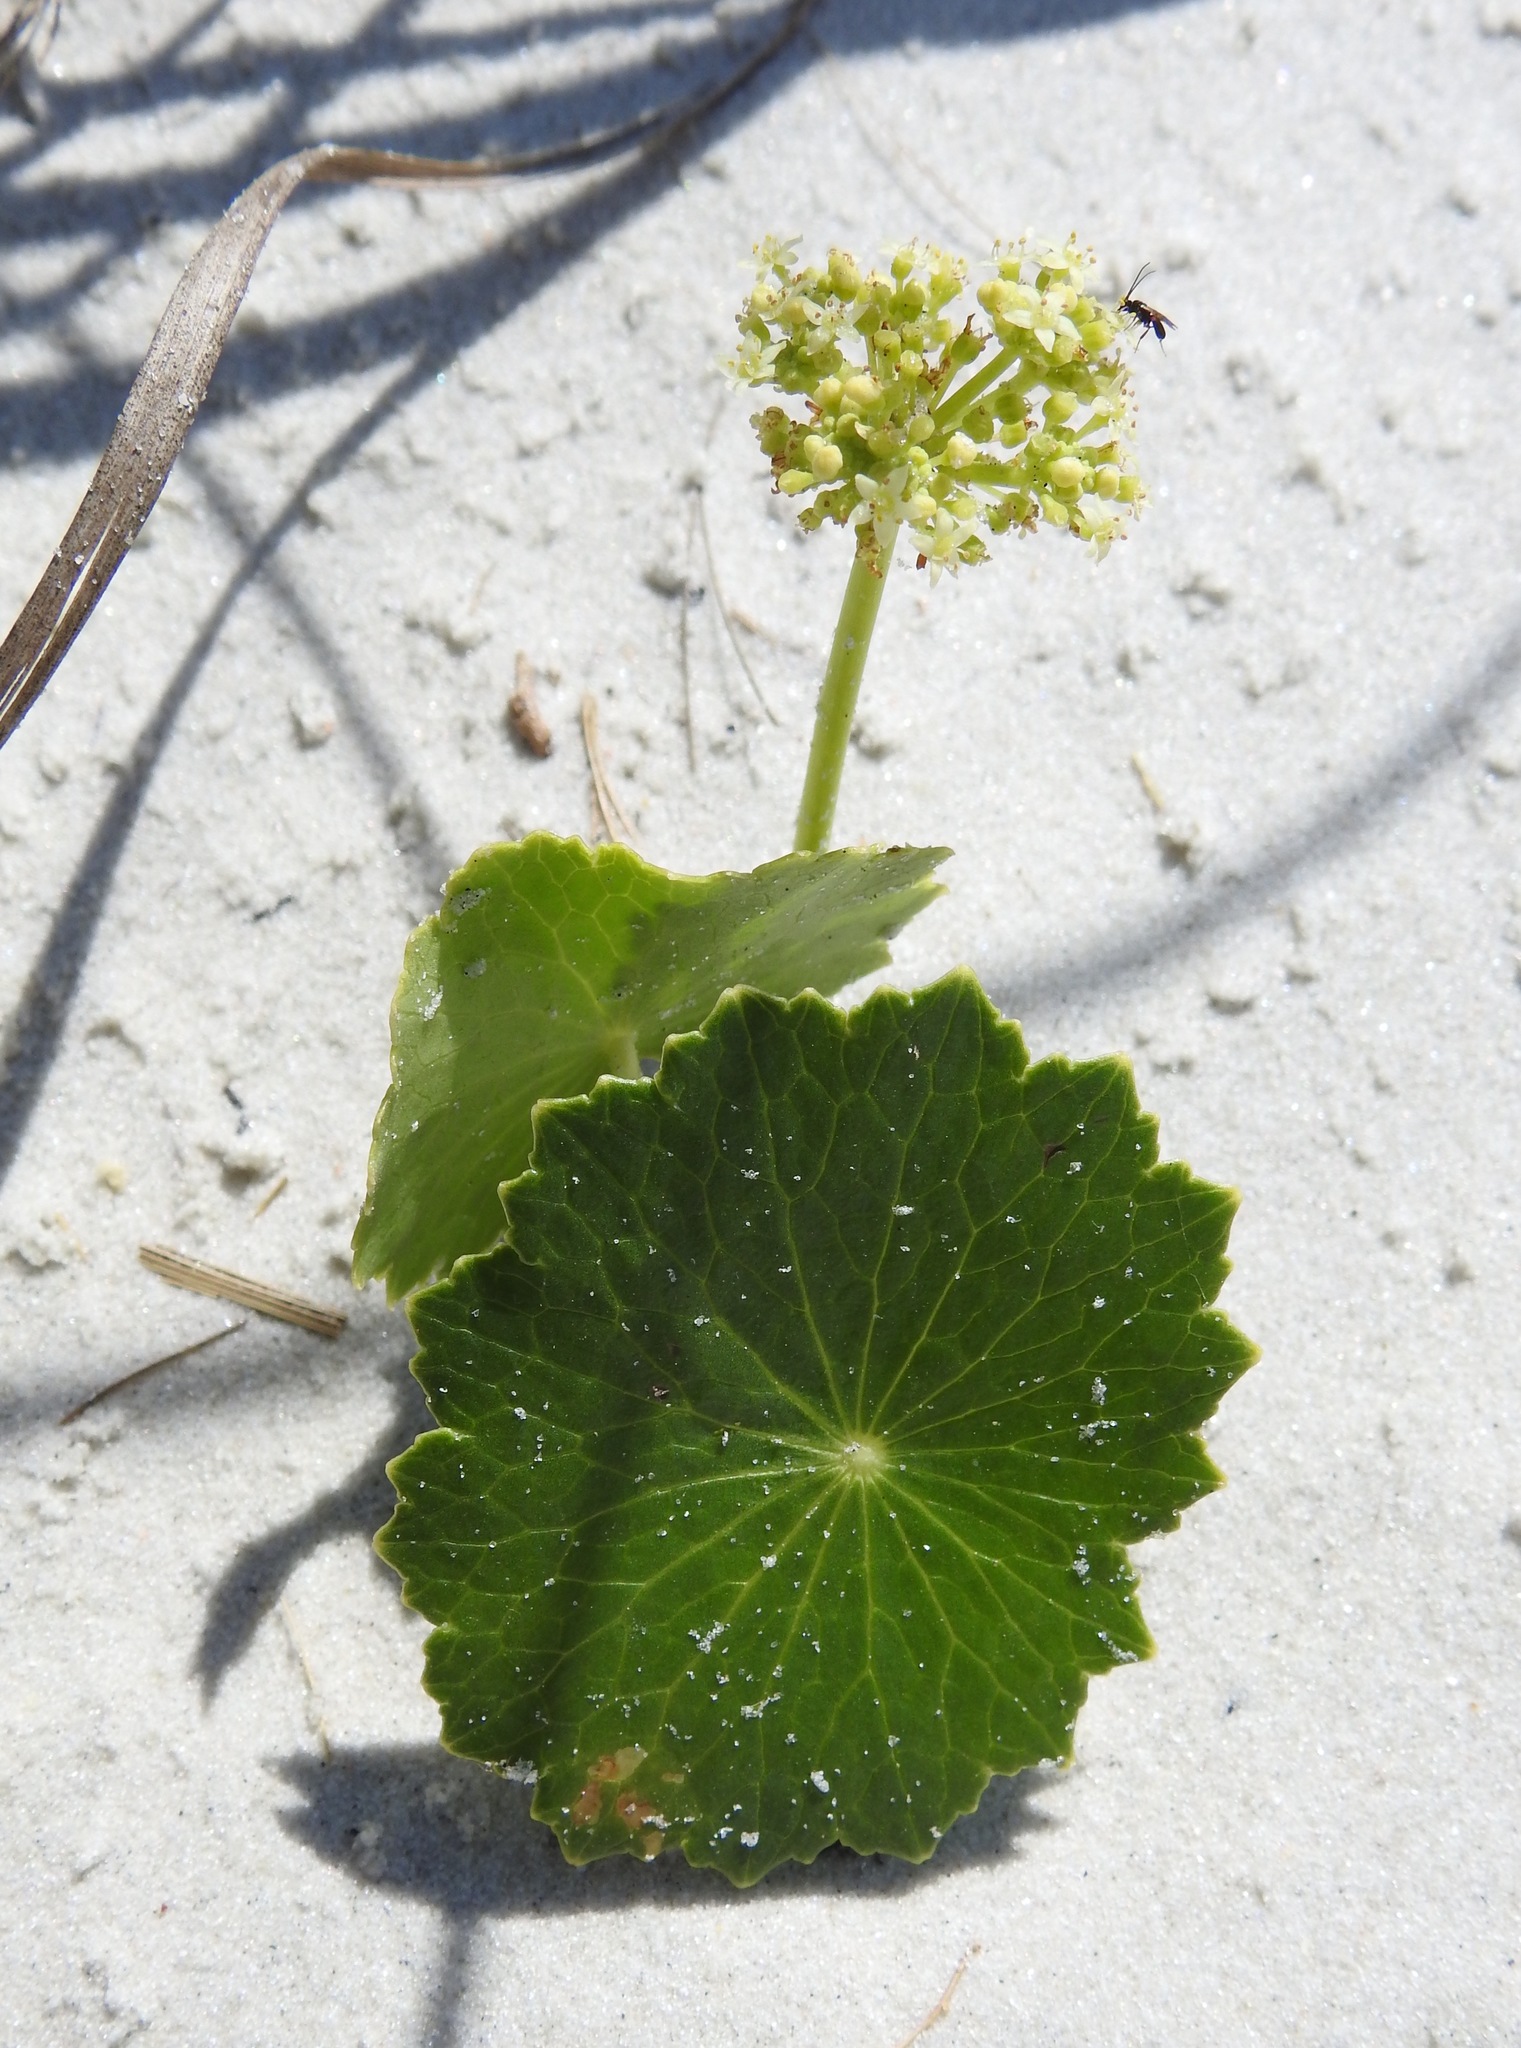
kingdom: Plantae
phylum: Tracheophyta
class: Magnoliopsida
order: Apiales
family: Araliaceae
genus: Hydrocotyle
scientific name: Hydrocotyle bonariensis
